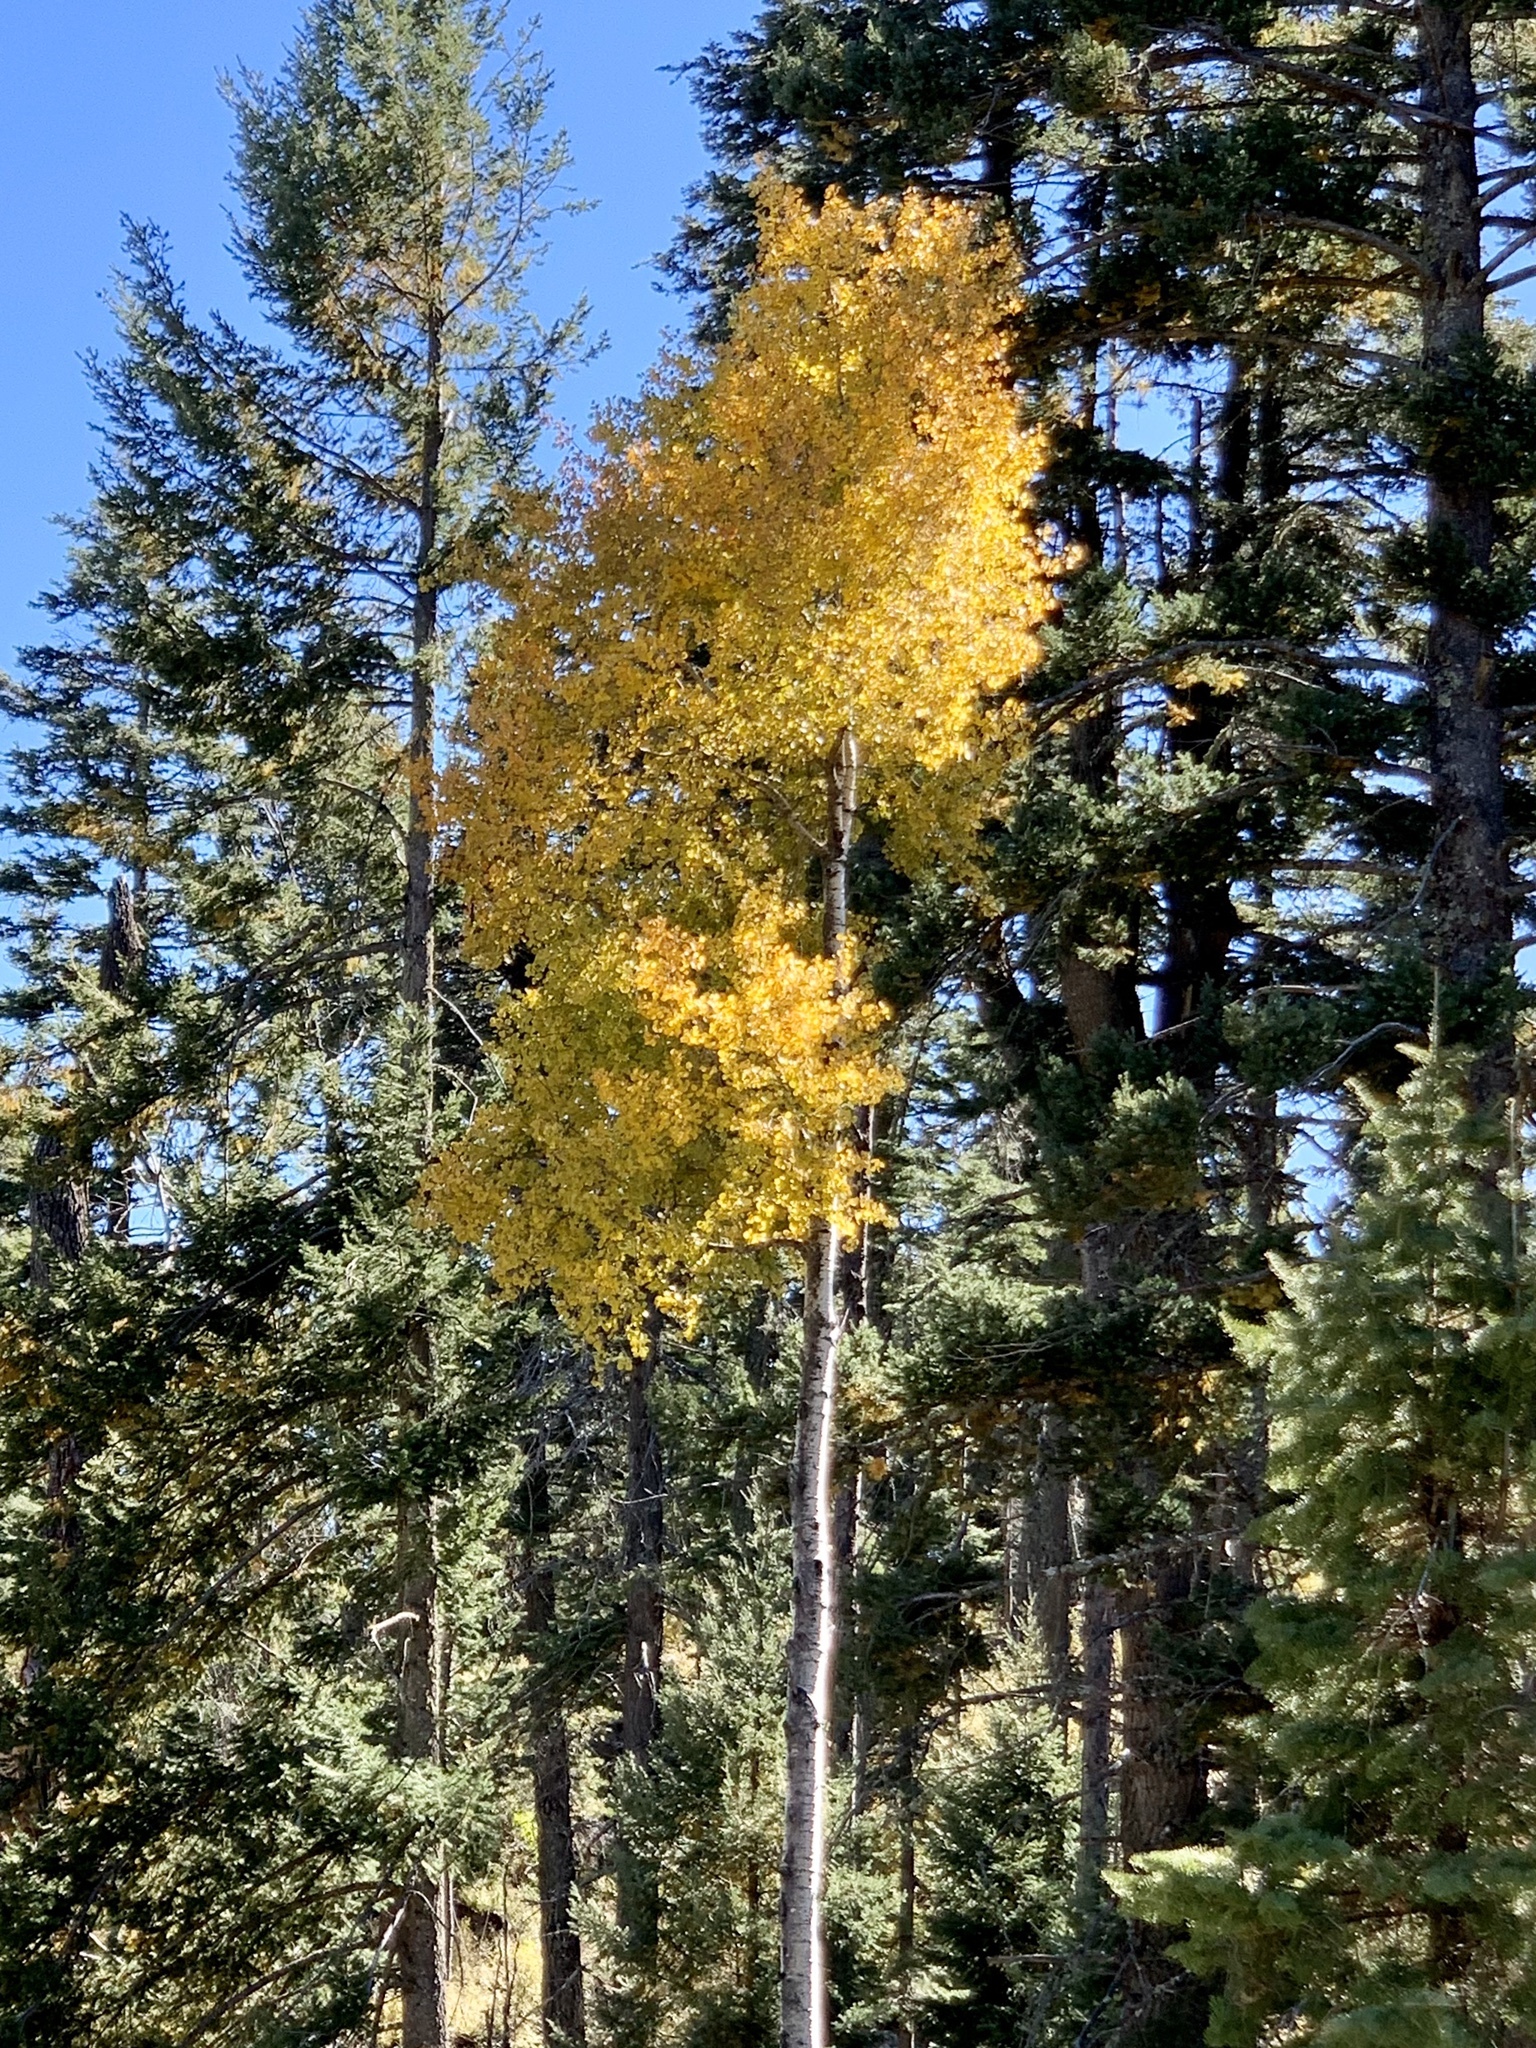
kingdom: Plantae
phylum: Tracheophyta
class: Magnoliopsida
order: Malpighiales
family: Salicaceae
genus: Populus
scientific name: Populus tremuloides
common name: Quaking aspen
